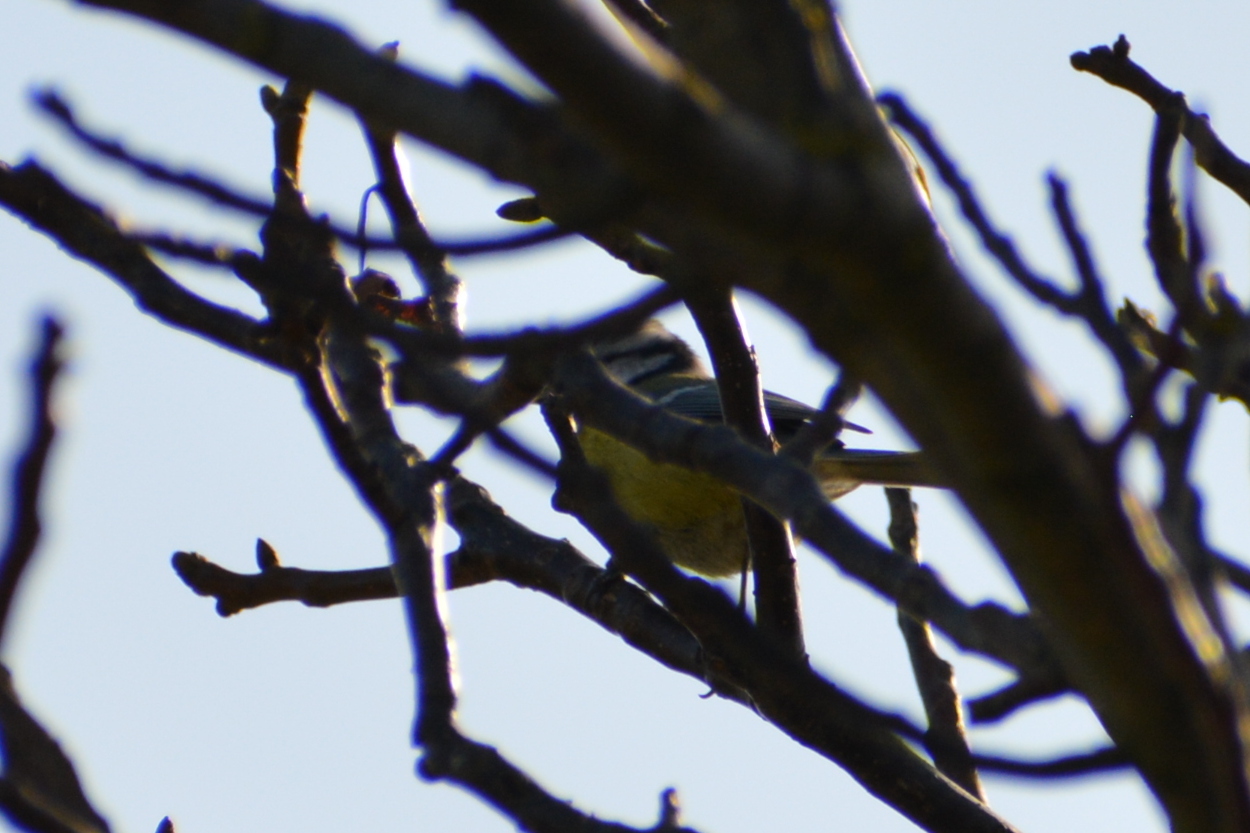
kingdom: Animalia
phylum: Chordata
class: Aves
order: Passeriformes
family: Paridae
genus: Cyanistes
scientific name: Cyanistes caeruleus
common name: Eurasian blue tit
